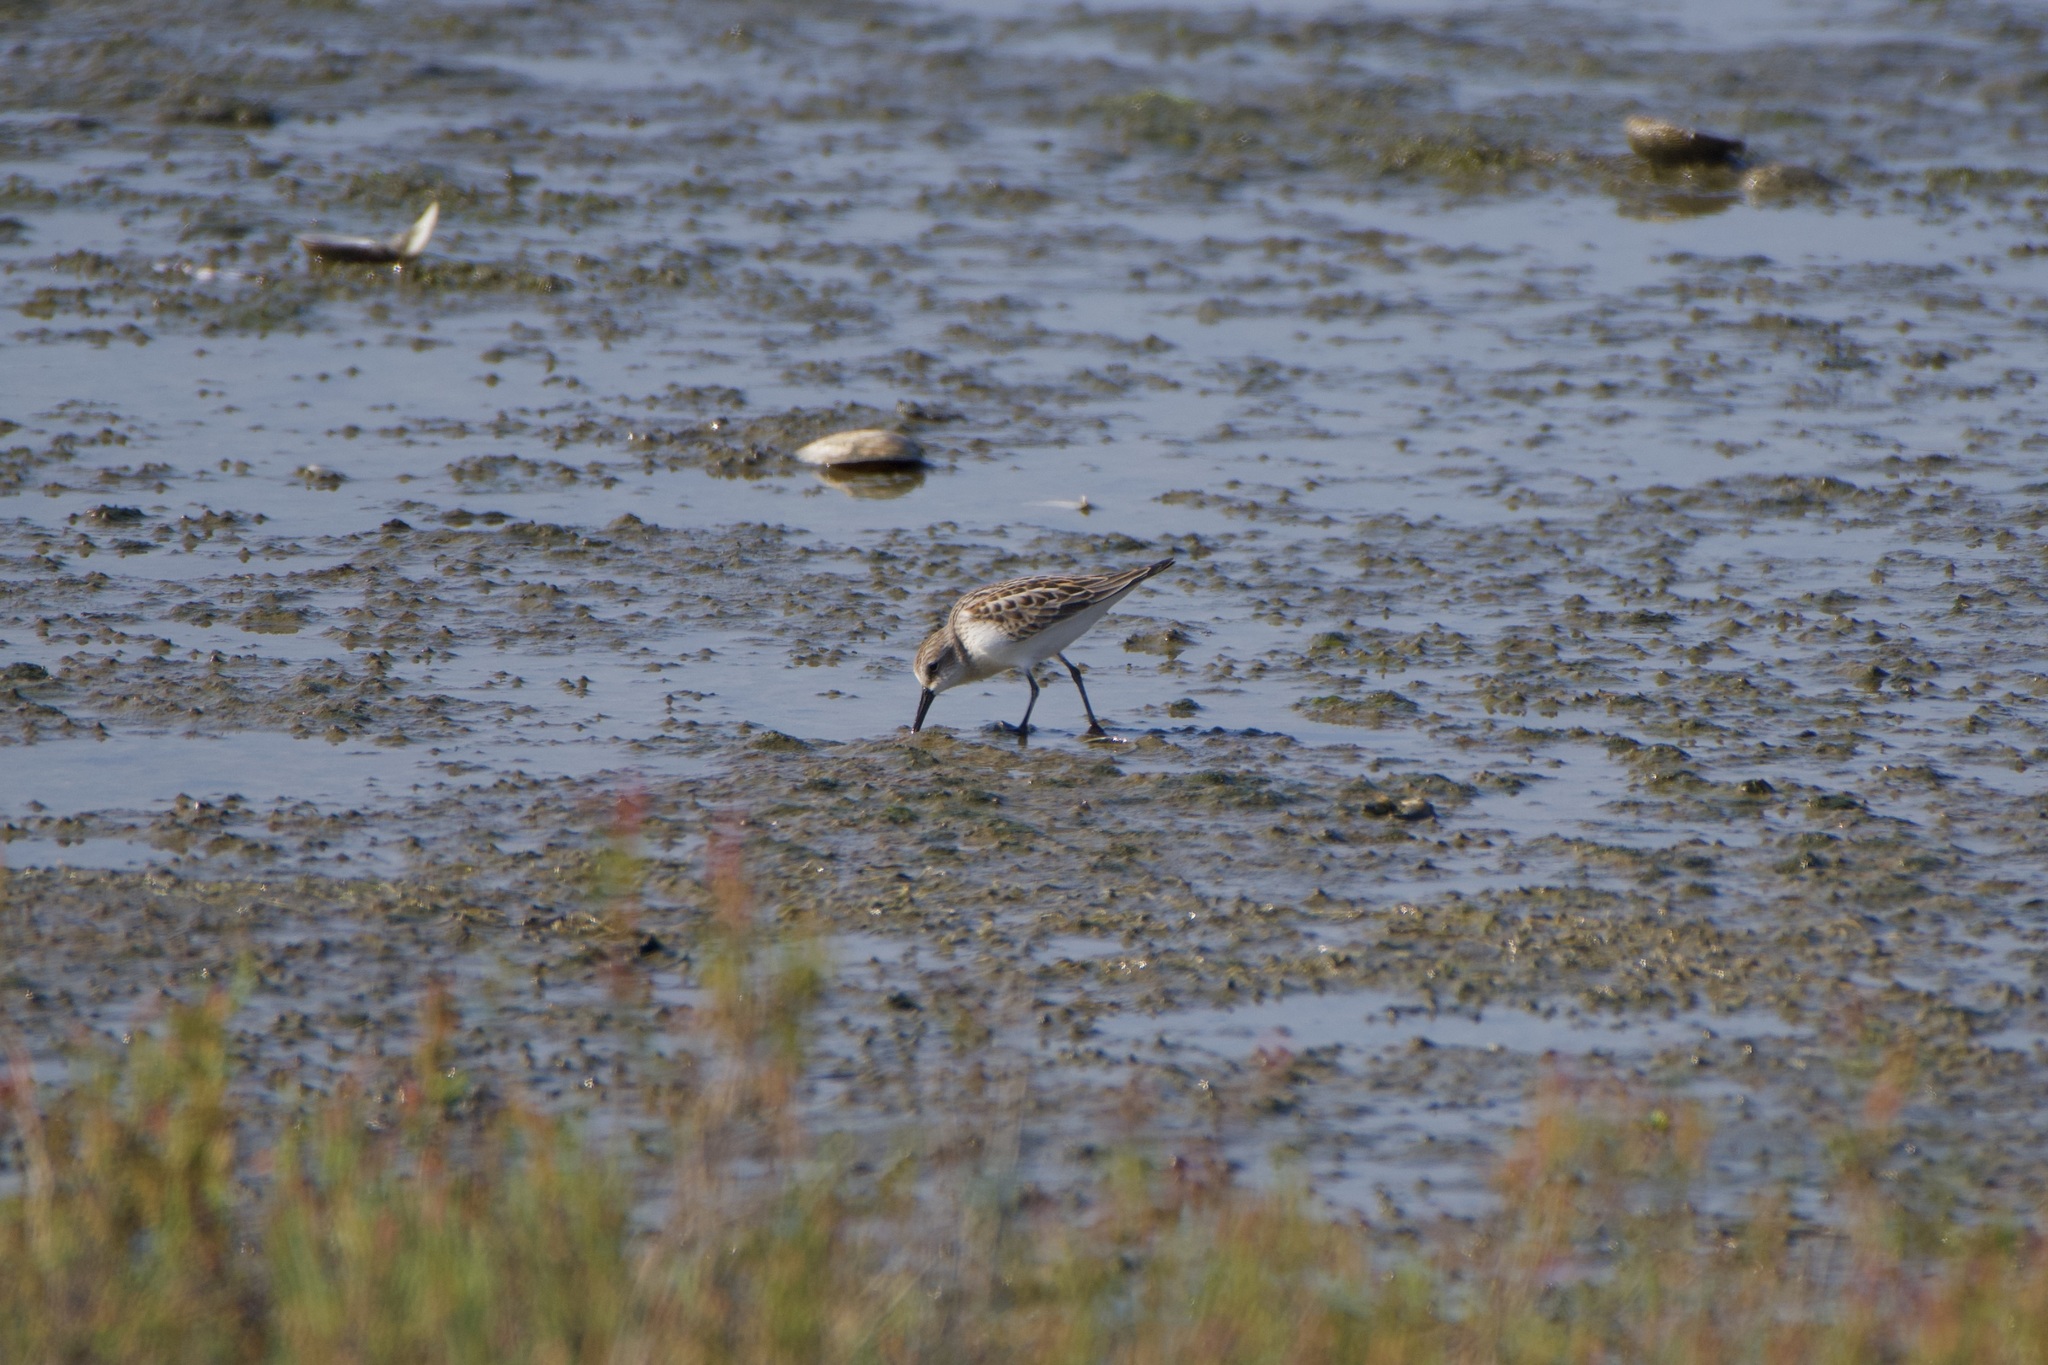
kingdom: Animalia
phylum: Chordata
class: Aves
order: Charadriiformes
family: Scolopacidae
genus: Calidris
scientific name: Calidris mauri
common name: Western sandpiper
